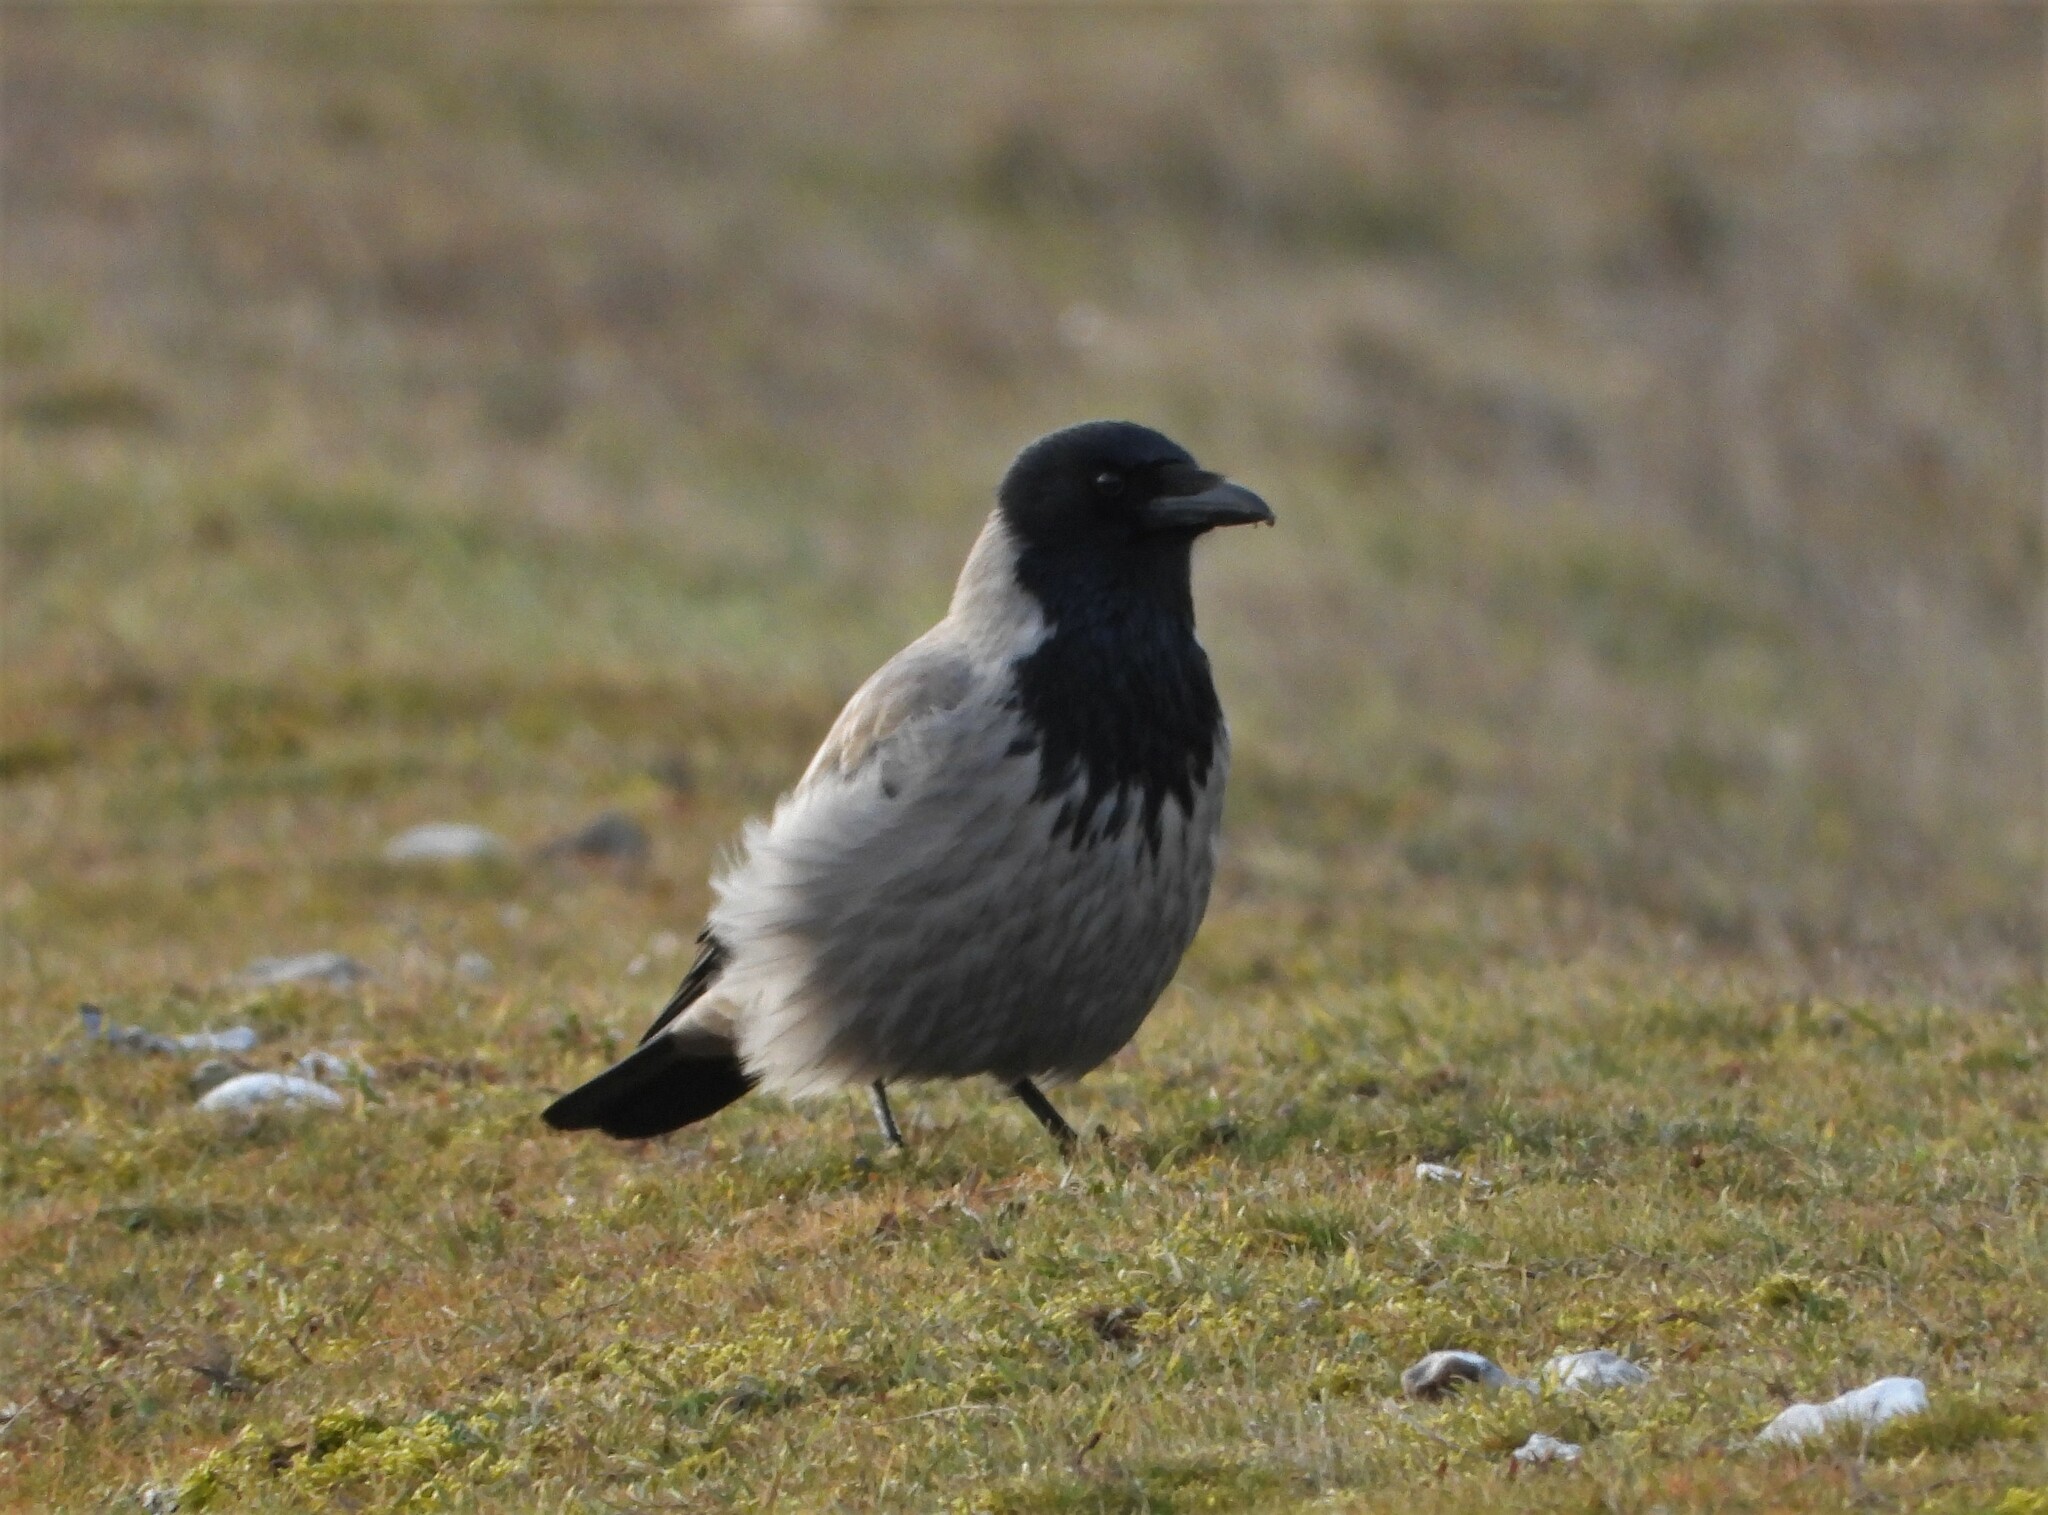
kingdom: Animalia
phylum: Chordata
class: Aves
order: Passeriformes
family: Corvidae
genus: Corvus
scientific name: Corvus cornix
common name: Hooded crow
